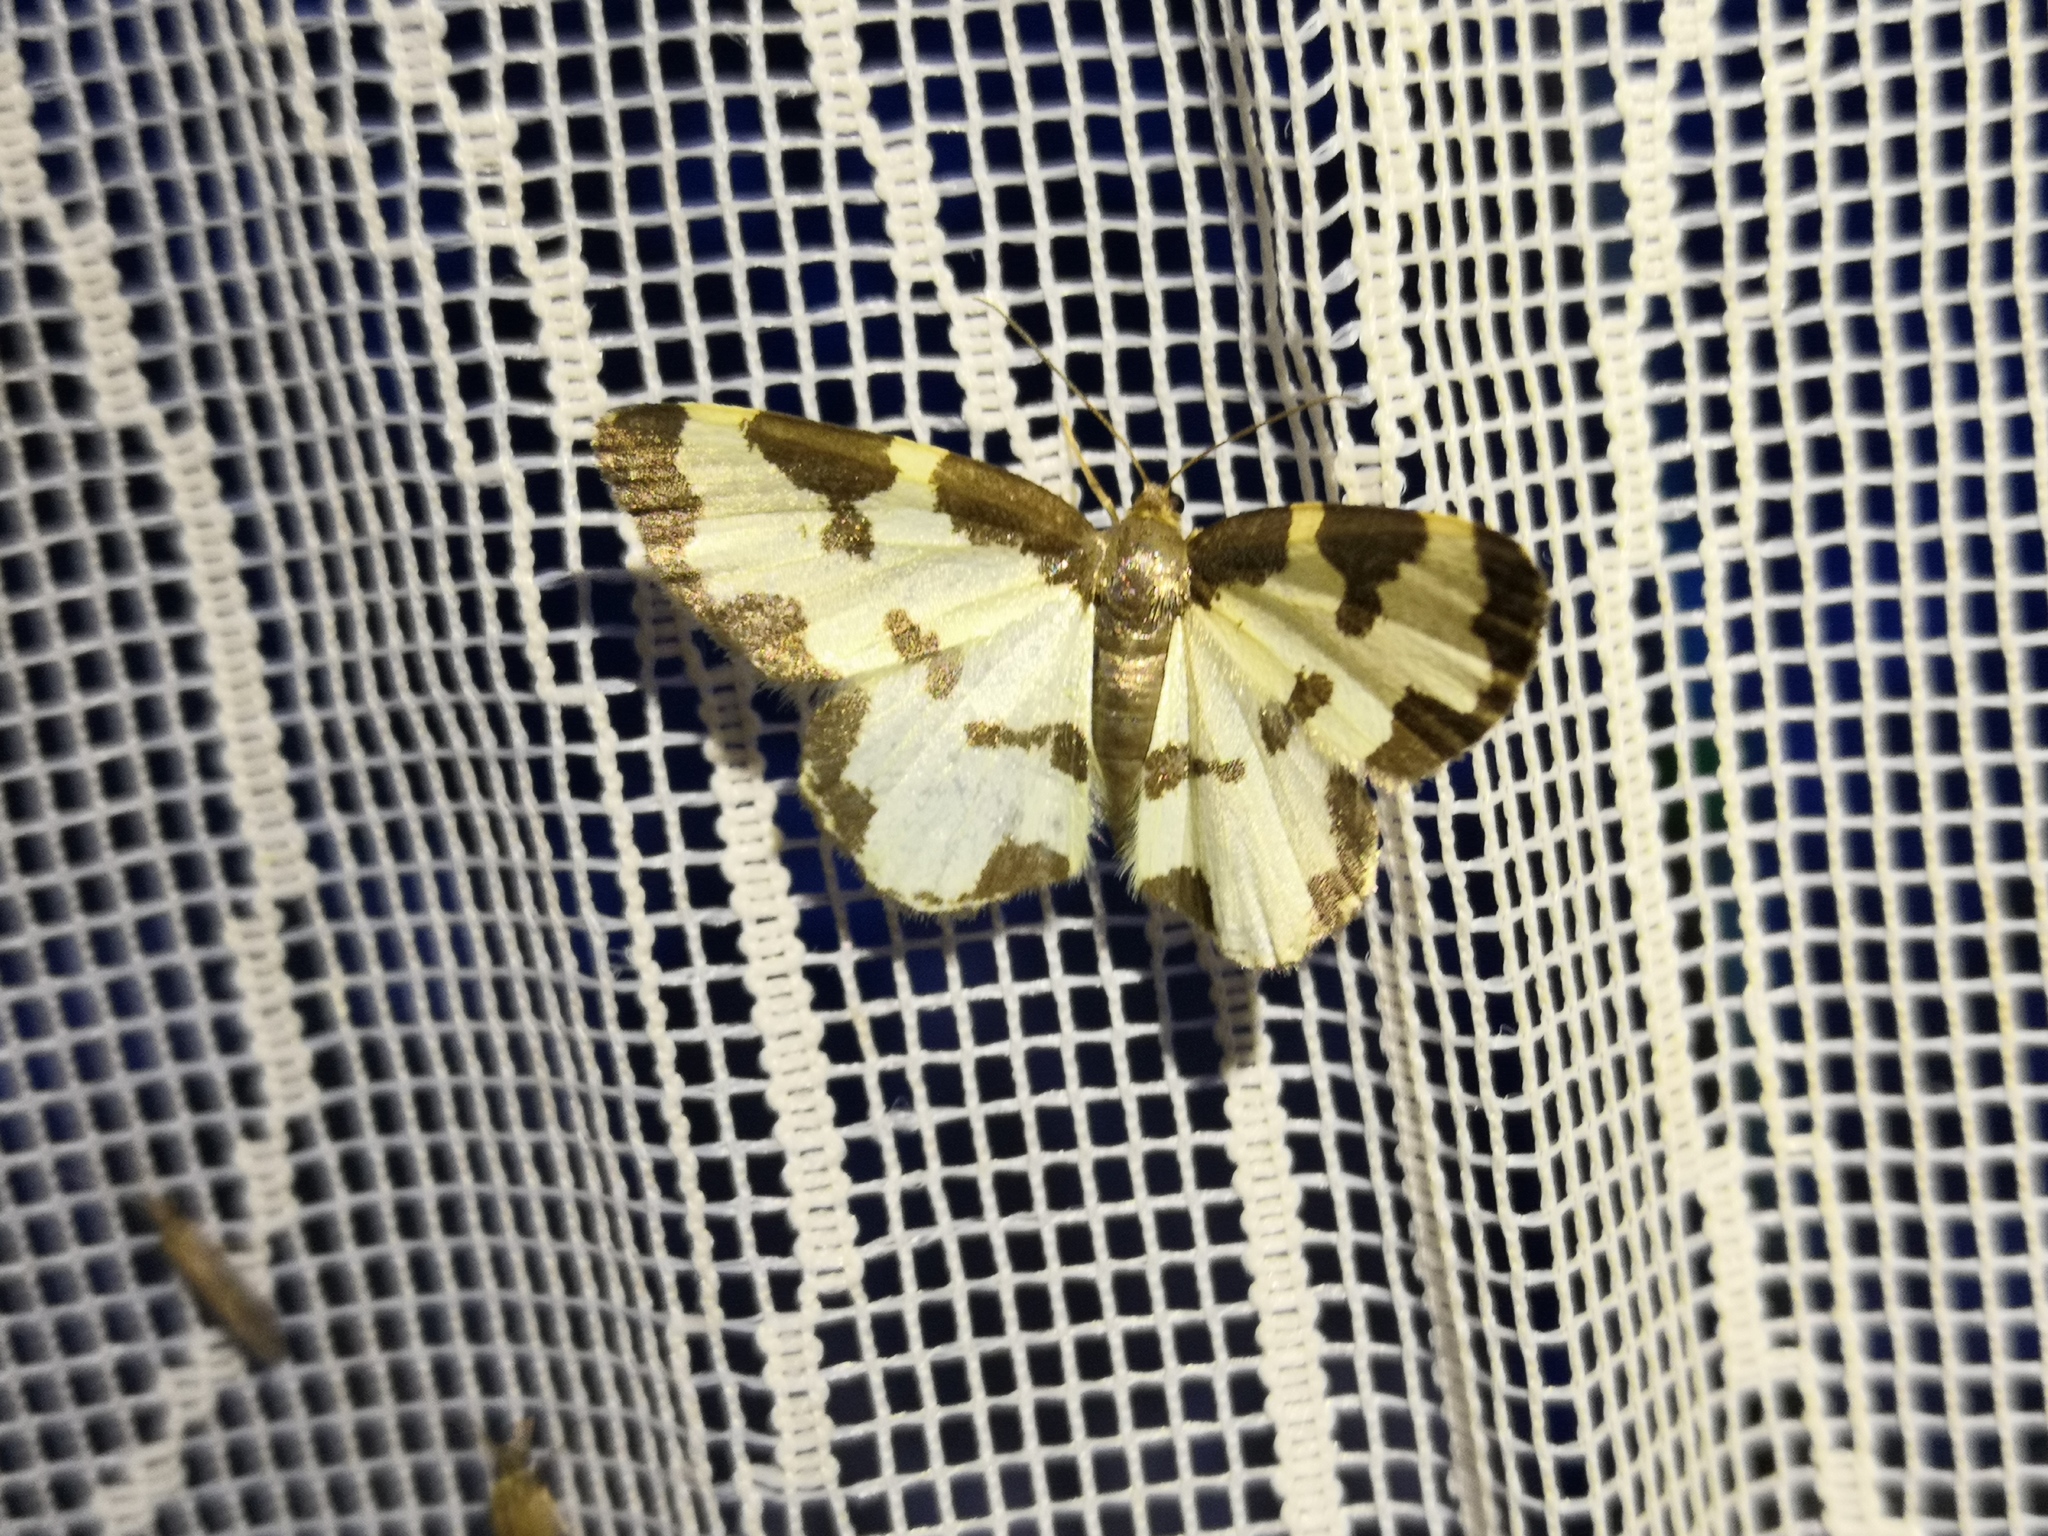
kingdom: Animalia
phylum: Arthropoda
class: Insecta
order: Lepidoptera
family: Geometridae
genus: Lomaspilis
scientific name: Lomaspilis marginata
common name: Clouded border
